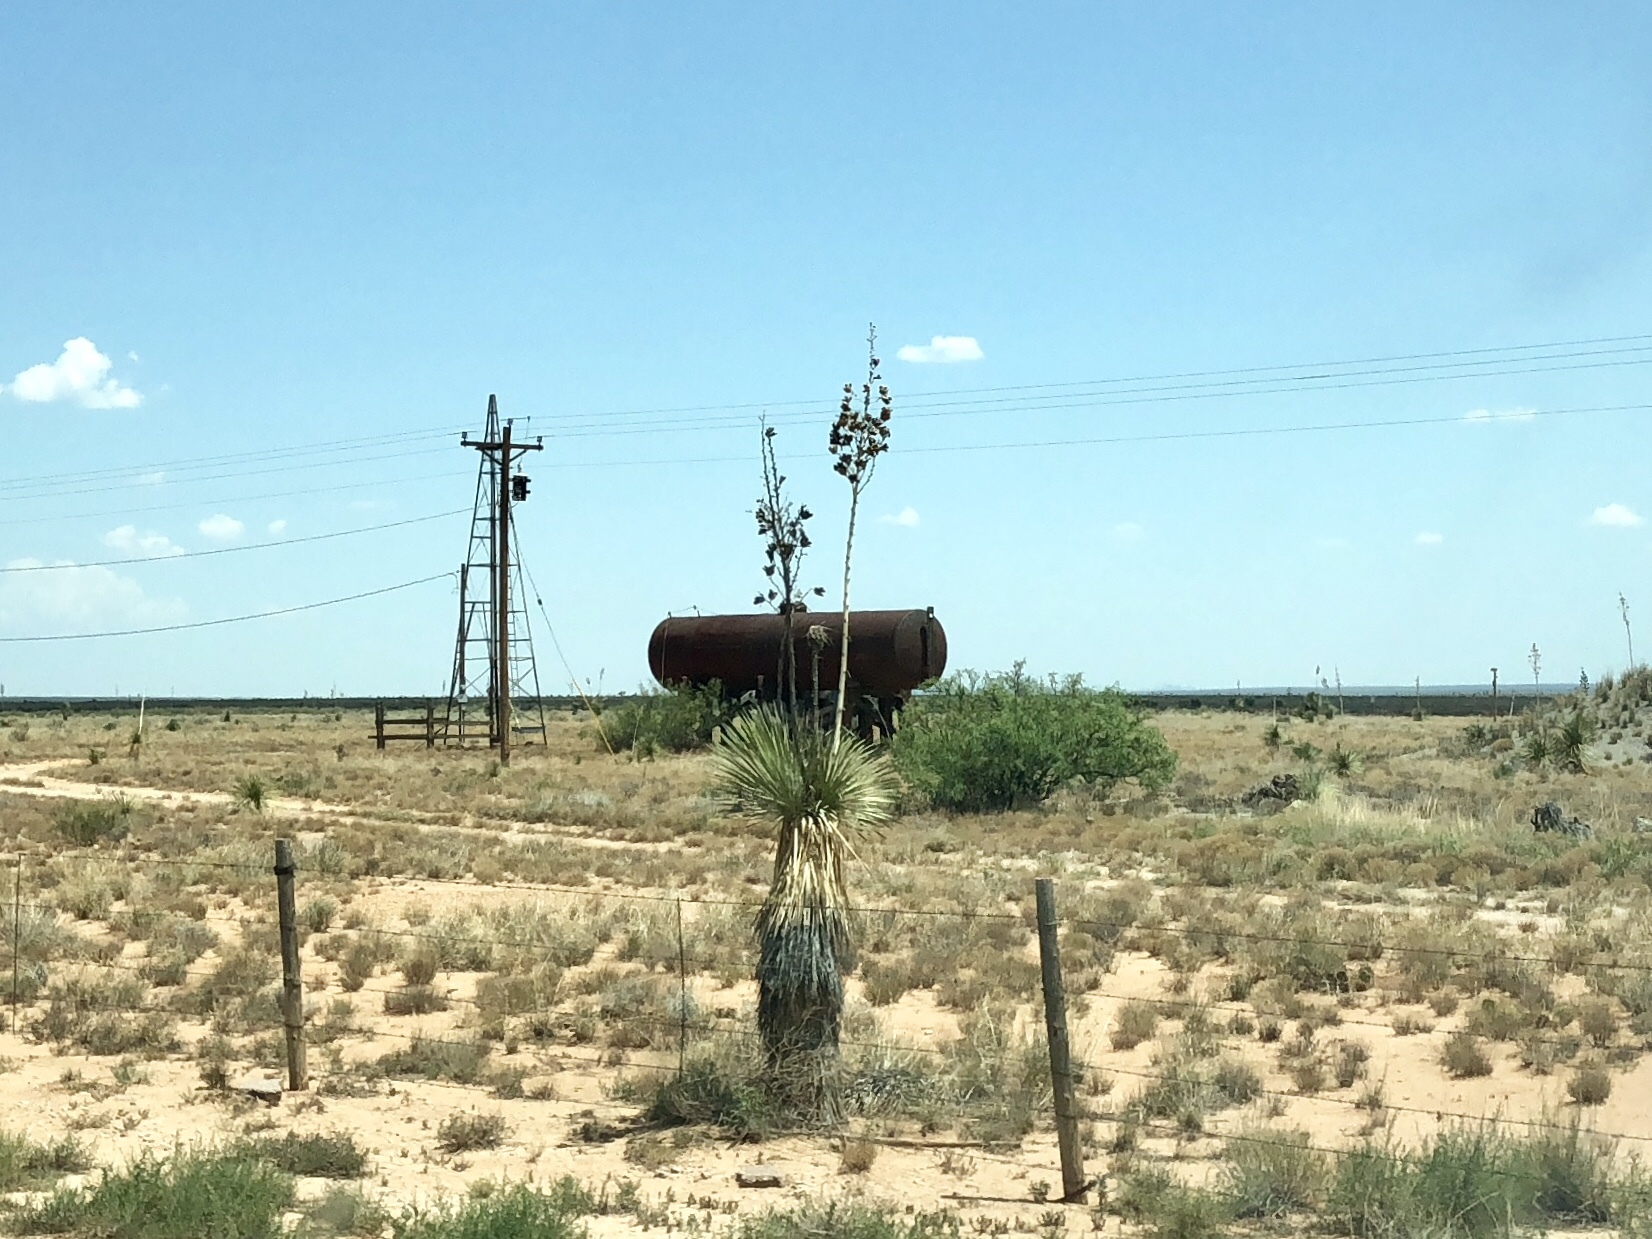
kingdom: Plantae
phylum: Tracheophyta
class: Liliopsida
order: Asparagales
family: Asparagaceae
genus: Yucca
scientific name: Yucca elata
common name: Palmella
